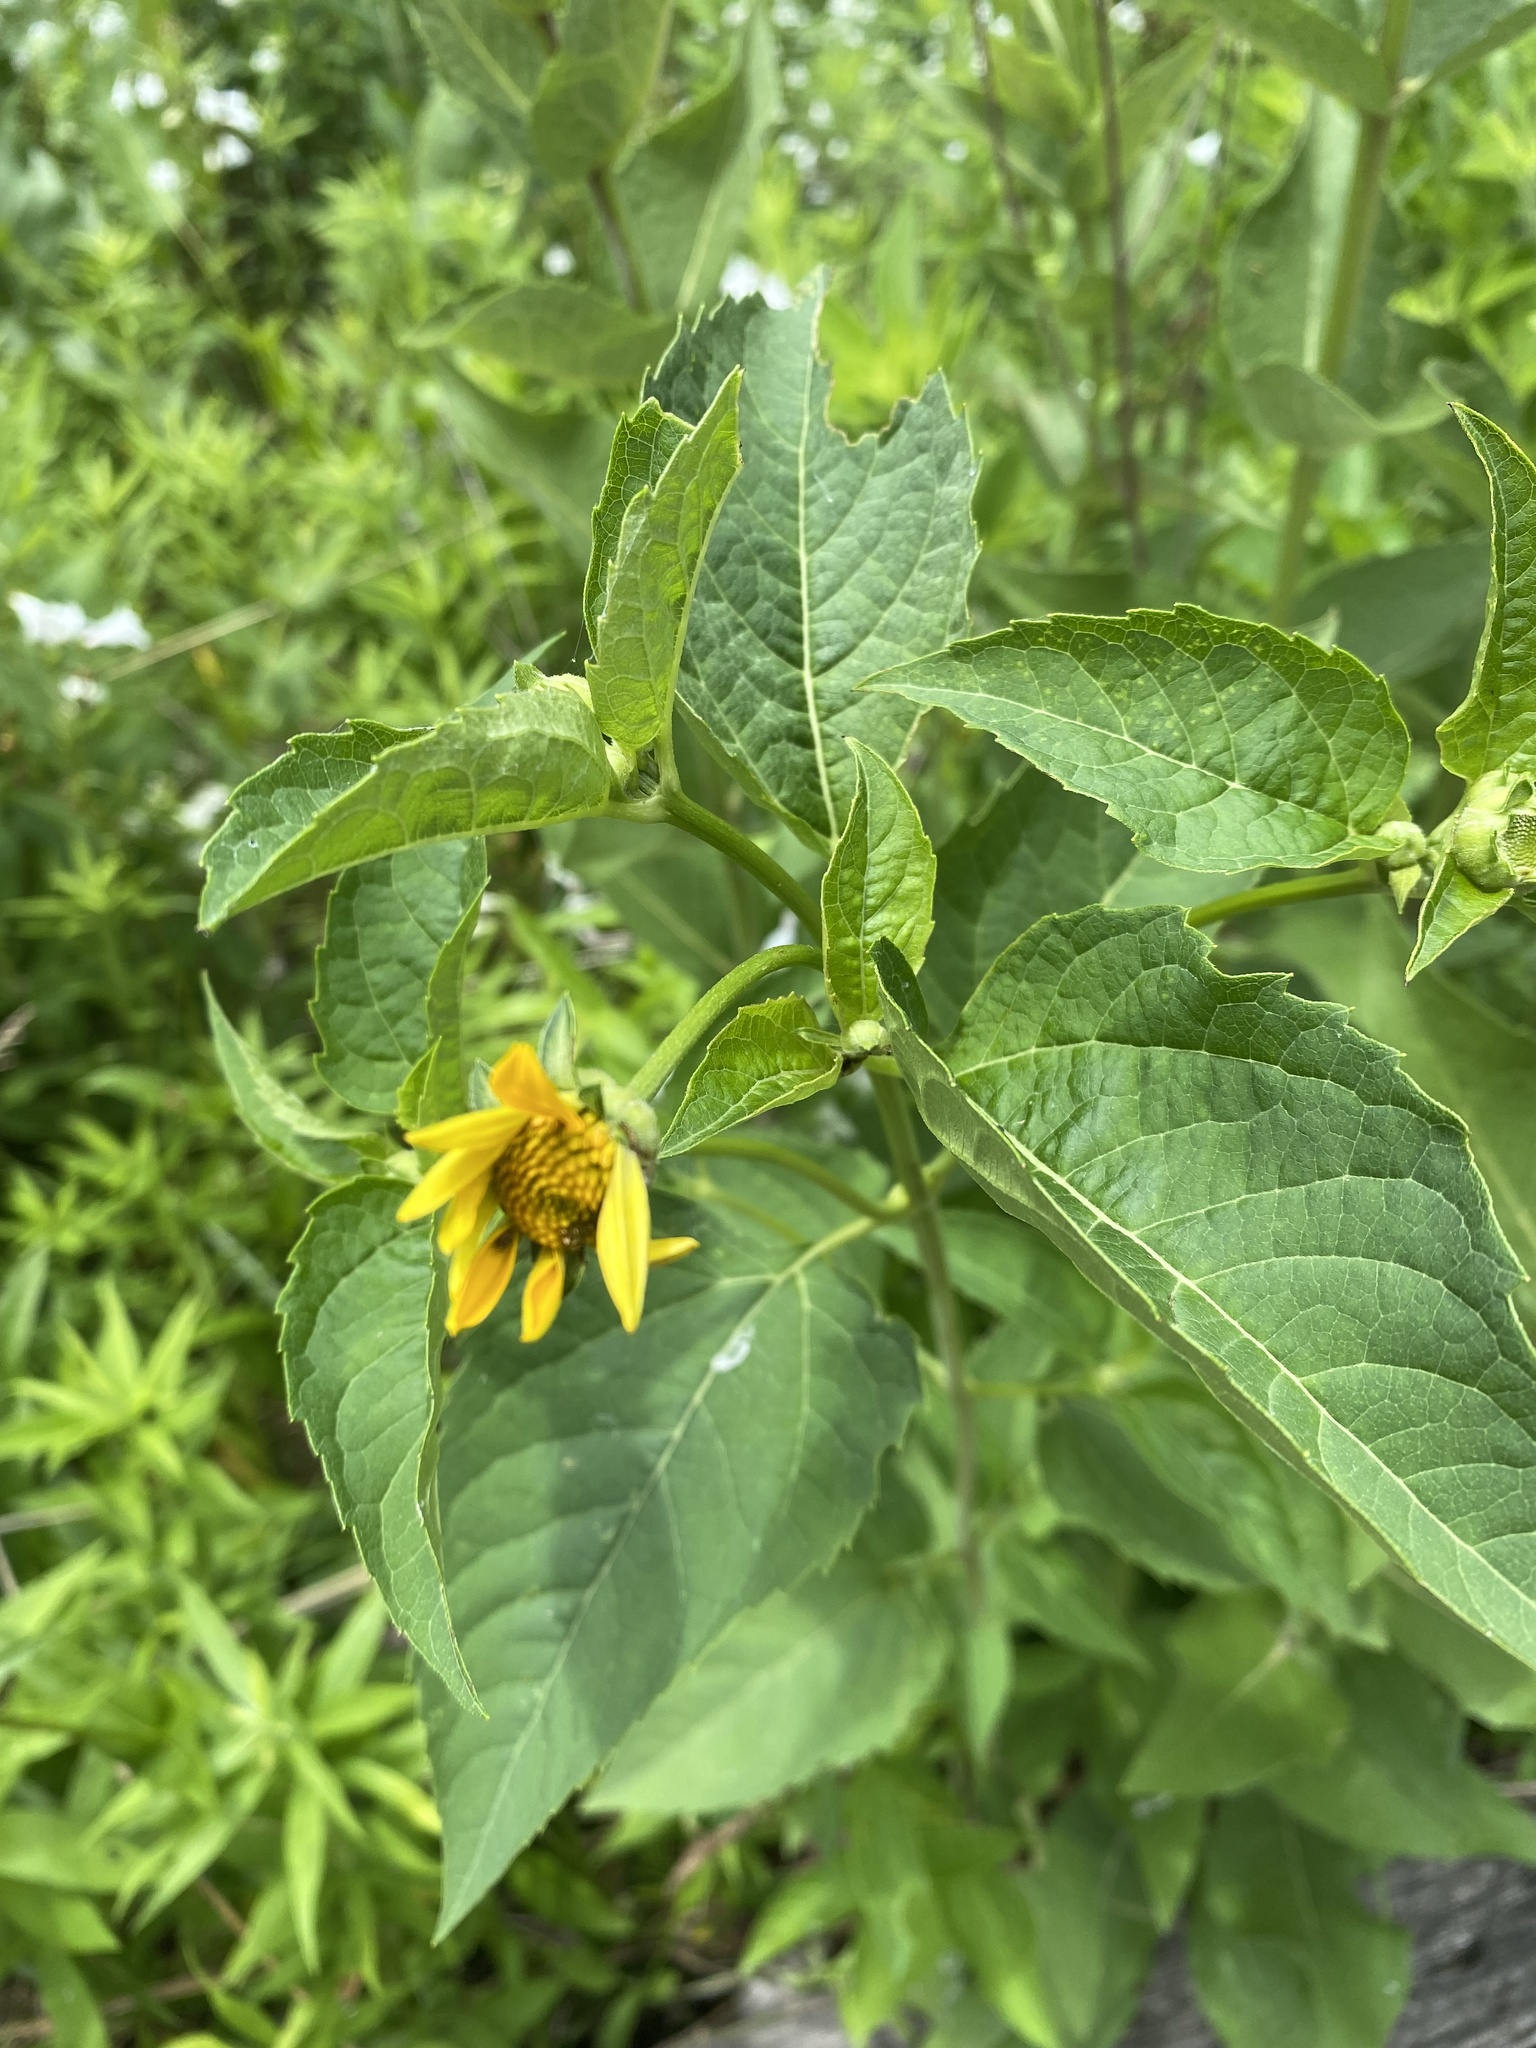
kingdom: Plantae
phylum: Tracheophyta
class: Magnoliopsida
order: Asterales
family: Asteraceae
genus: Heliopsis
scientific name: Heliopsis helianthoides
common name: False sunflower
